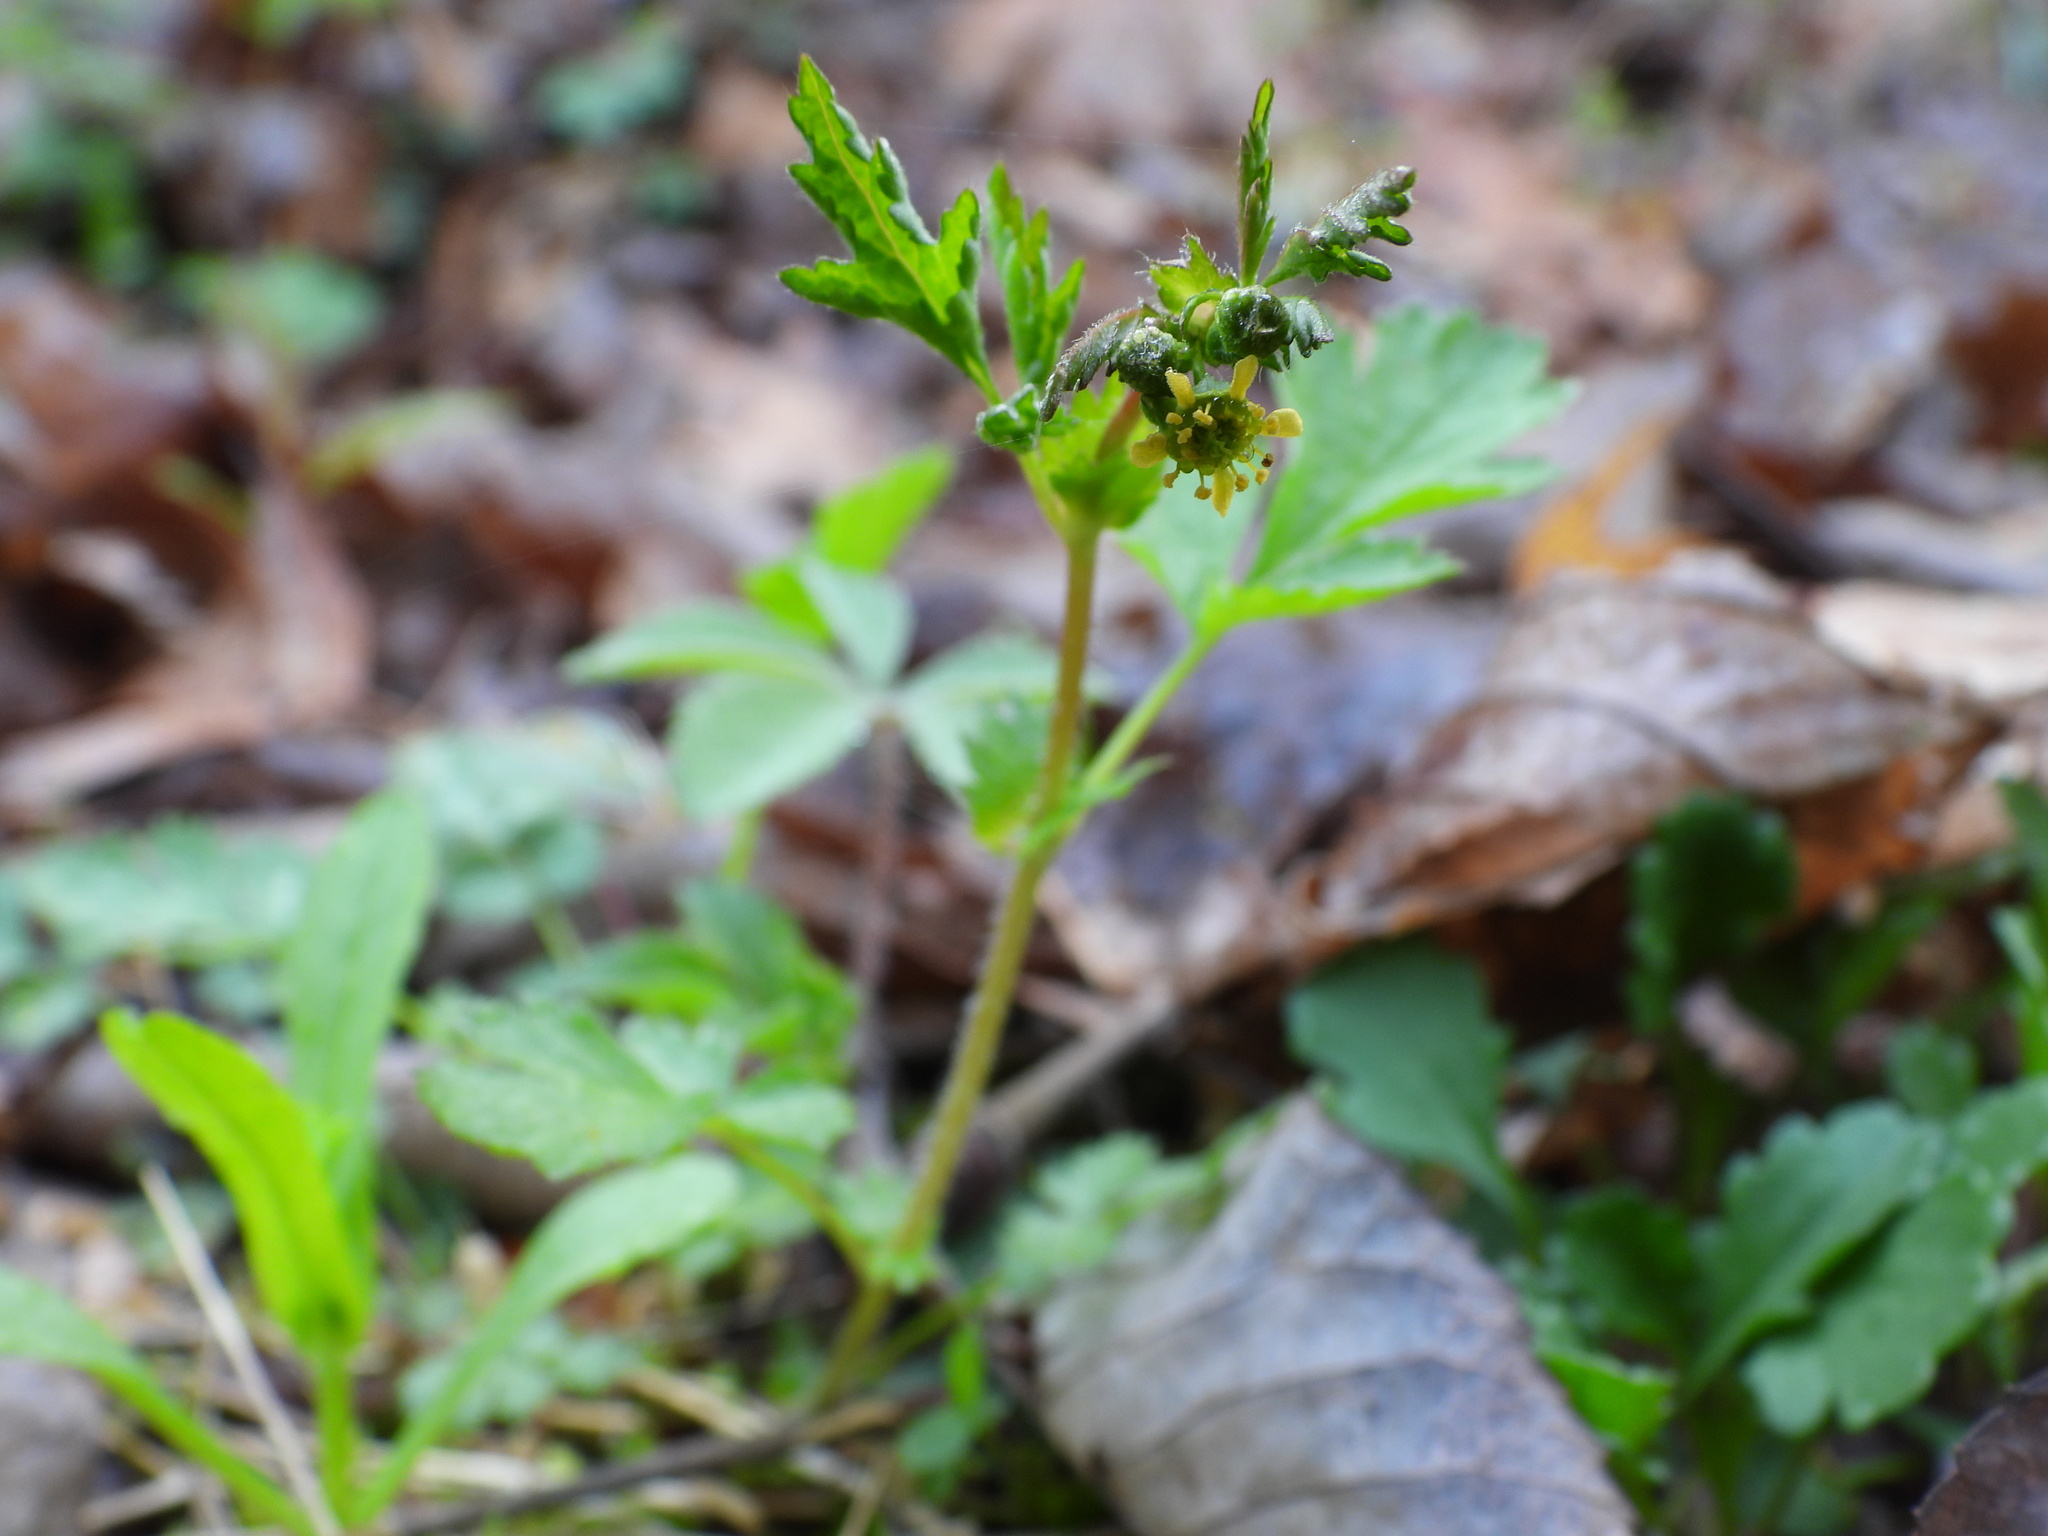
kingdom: Plantae
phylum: Tracheophyta
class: Magnoliopsida
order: Rosales
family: Rosaceae
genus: Geum
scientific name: Geum vernum
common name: Spring avens
